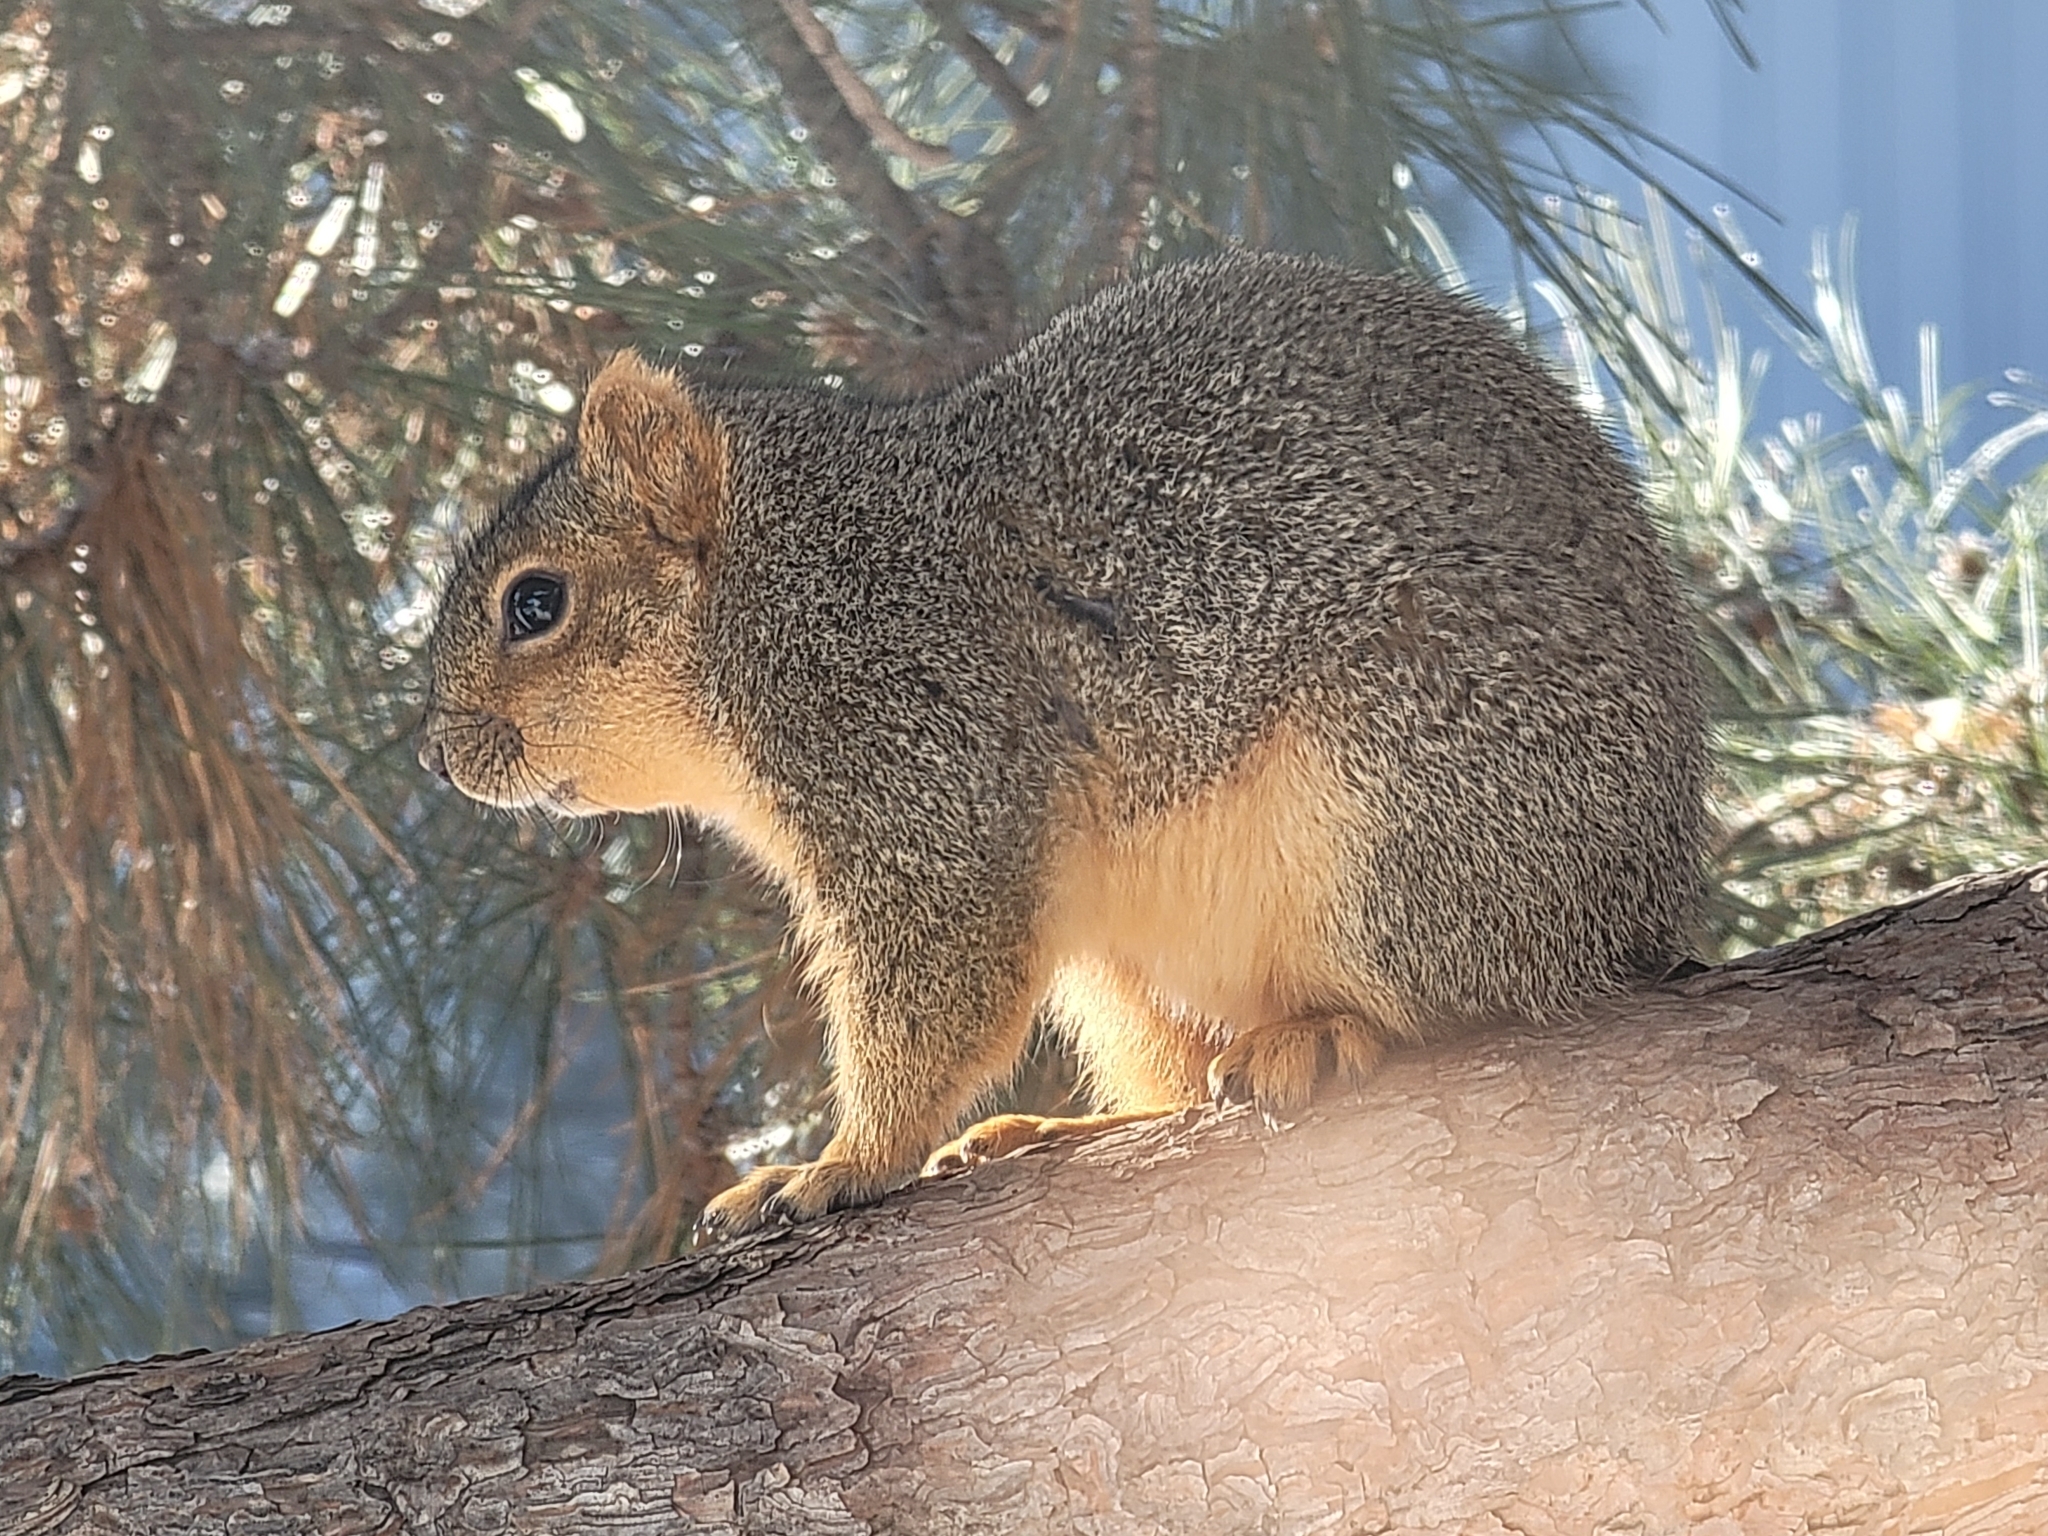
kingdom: Animalia
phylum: Chordata
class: Mammalia
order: Rodentia
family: Sciuridae
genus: Sciurus
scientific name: Sciurus niger
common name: Fox squirrel
